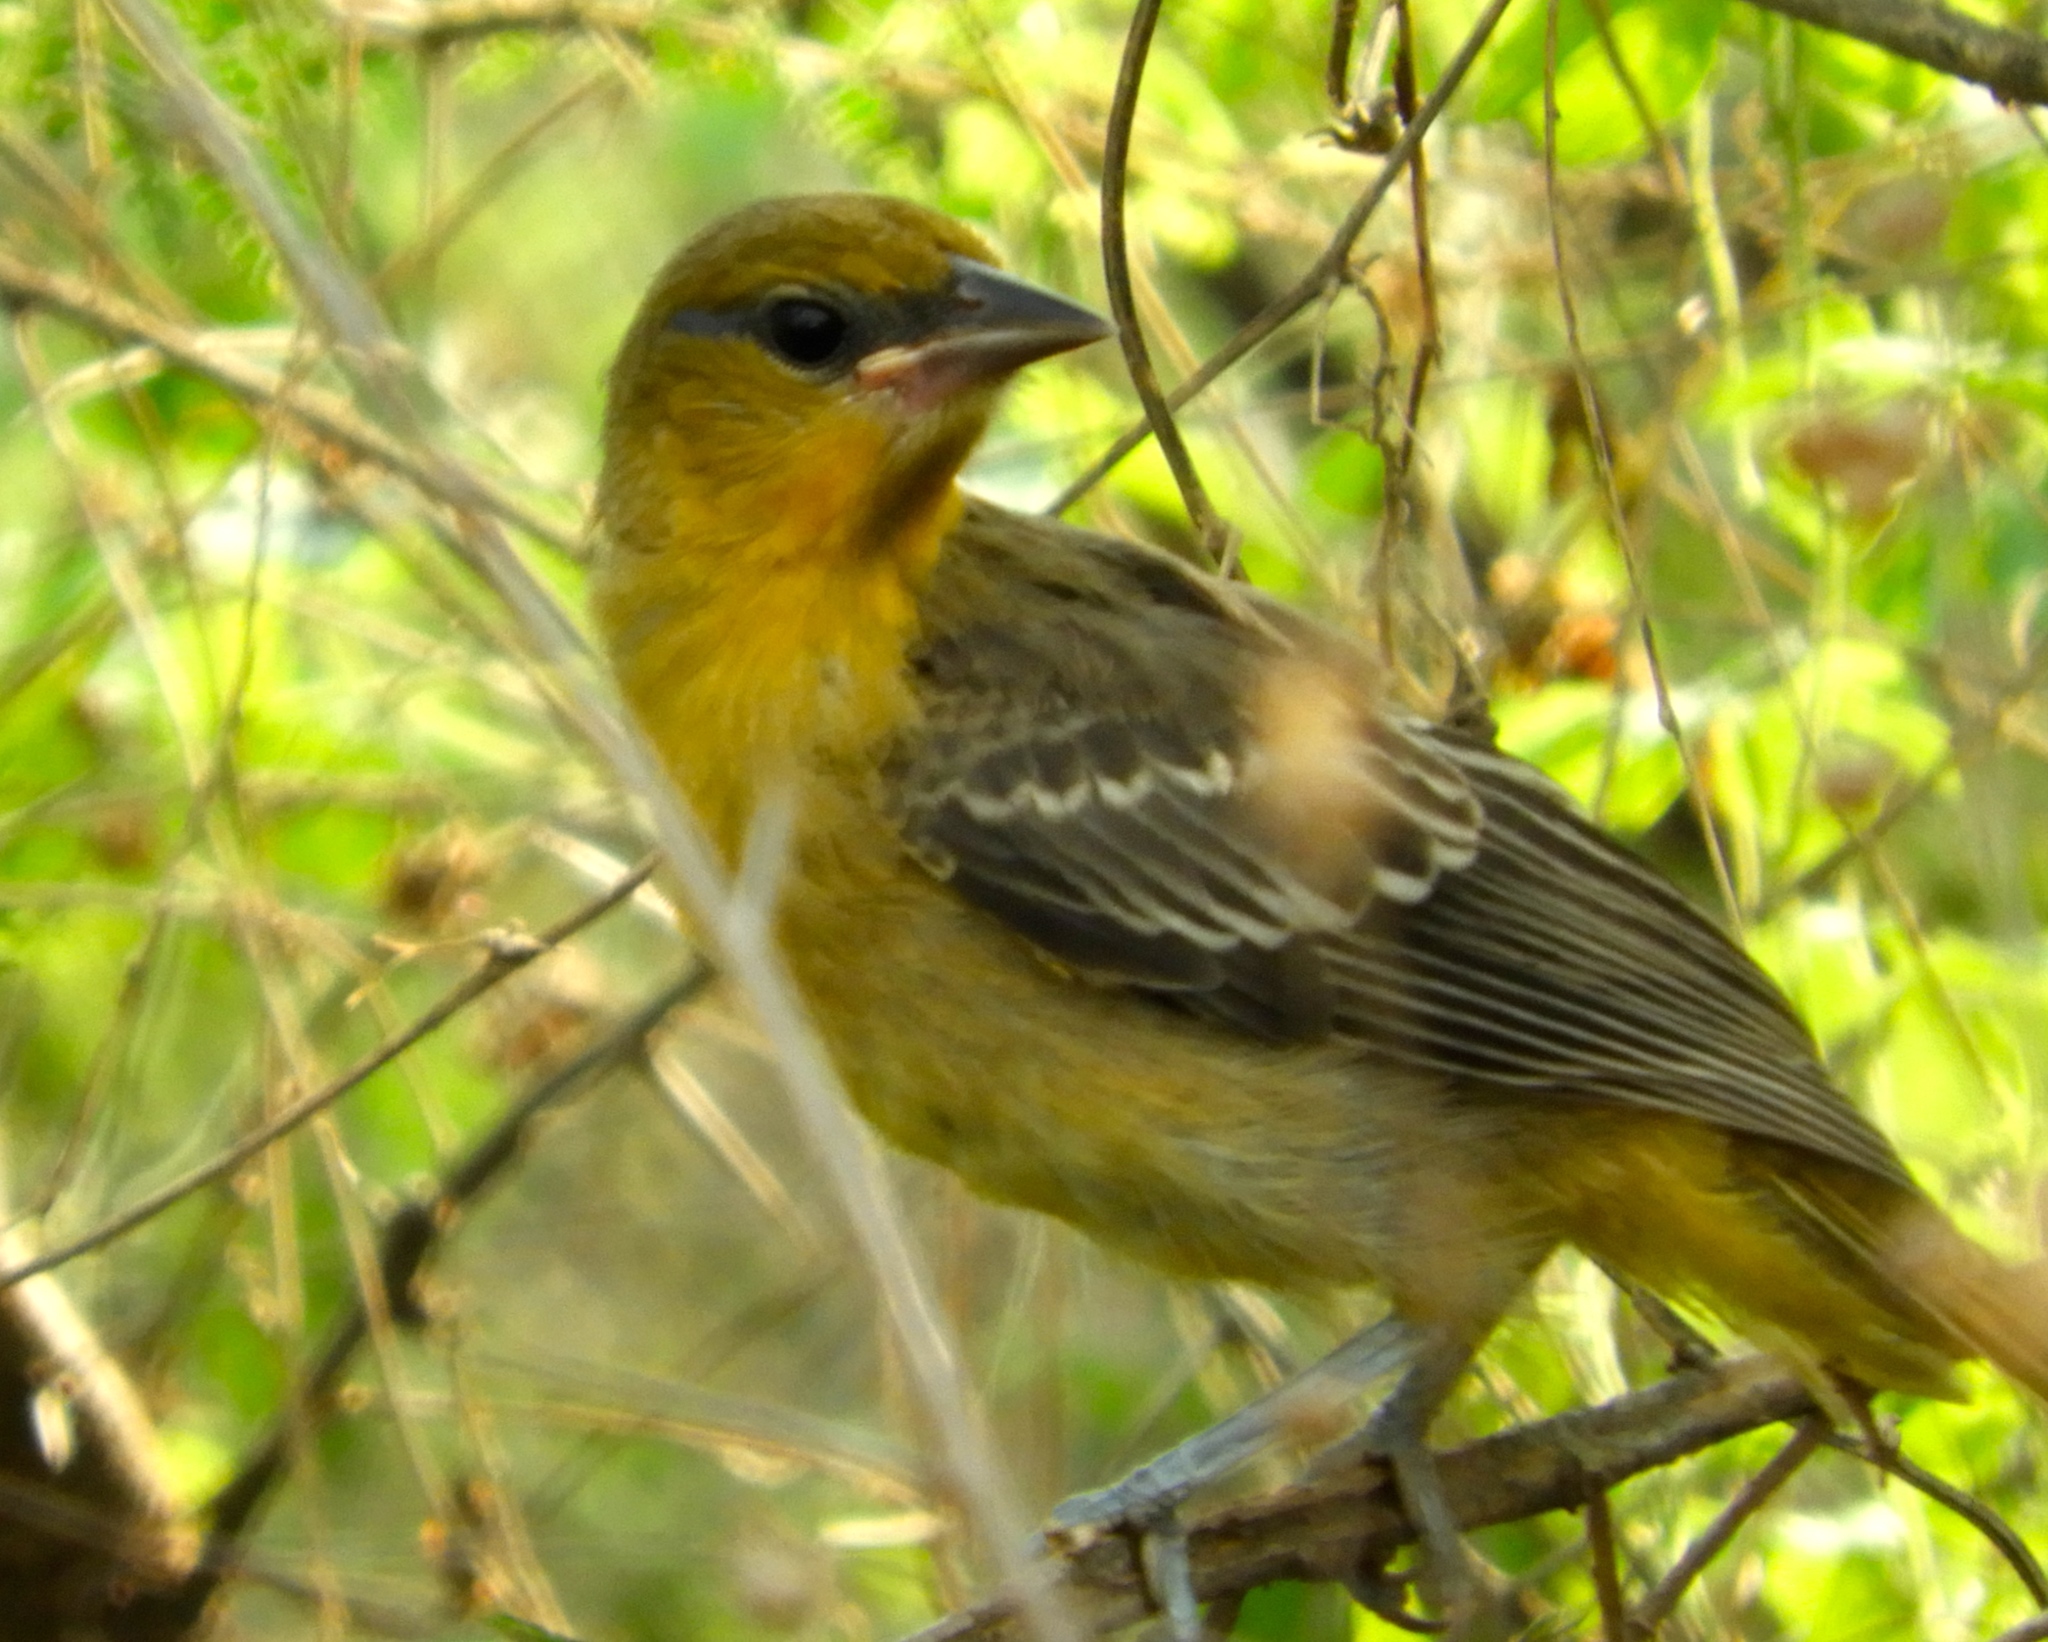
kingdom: Animalia
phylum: Chordata
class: Aves
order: Passeriformes
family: Icteridae
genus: Icterus
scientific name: Icterus
